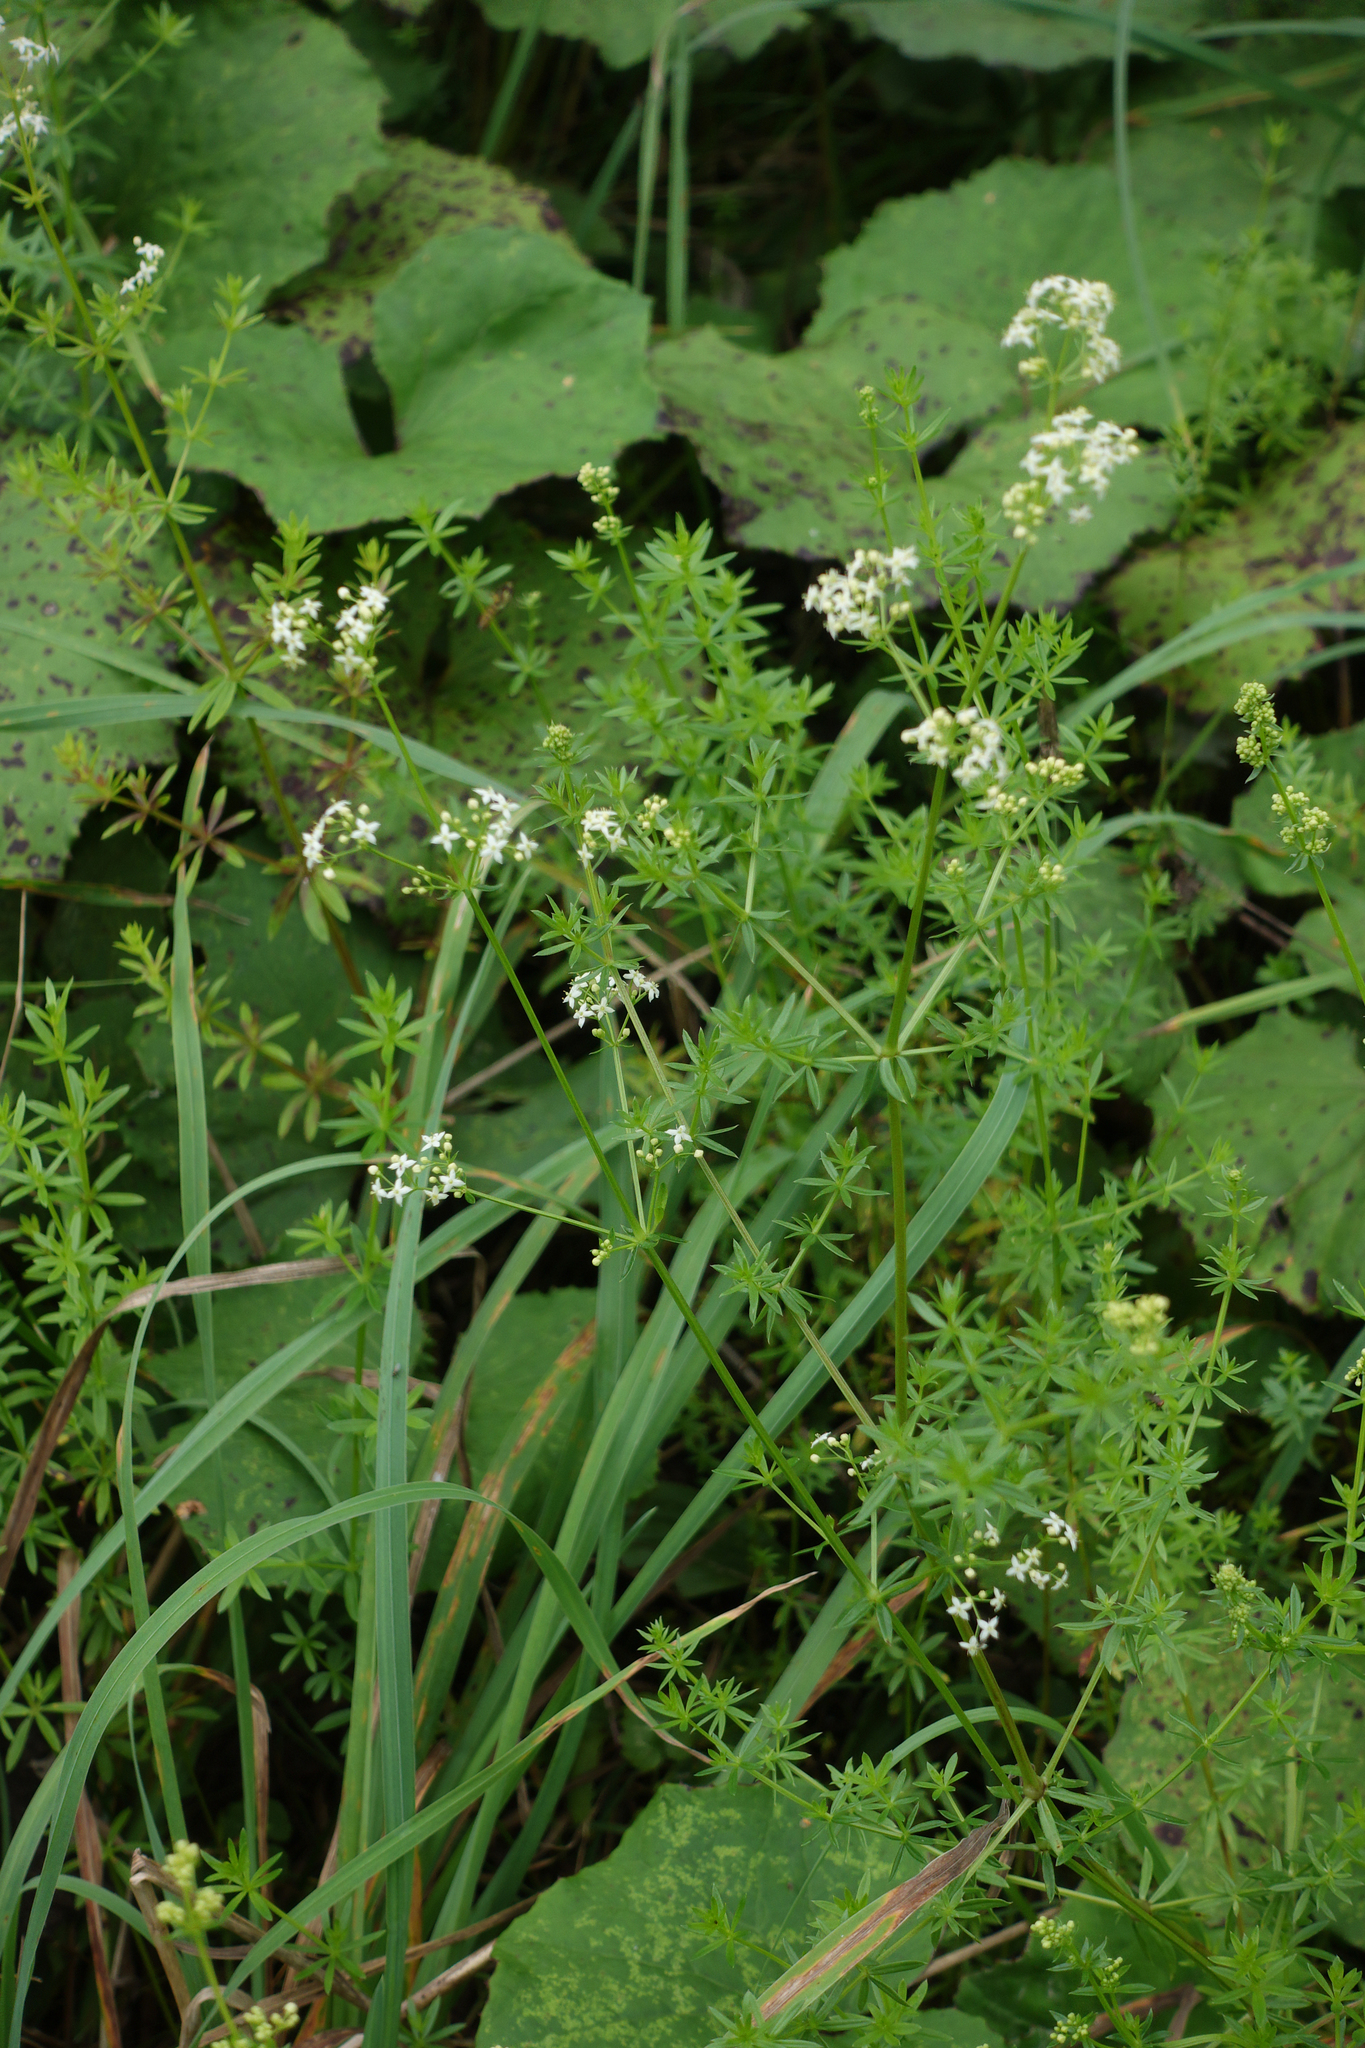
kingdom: Plantae
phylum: Tracheophyta
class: Magnoliopsida
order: Gentianales
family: Rubiaceae
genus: Galium
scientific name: Galium mollugo
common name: Hedge bedstraw
